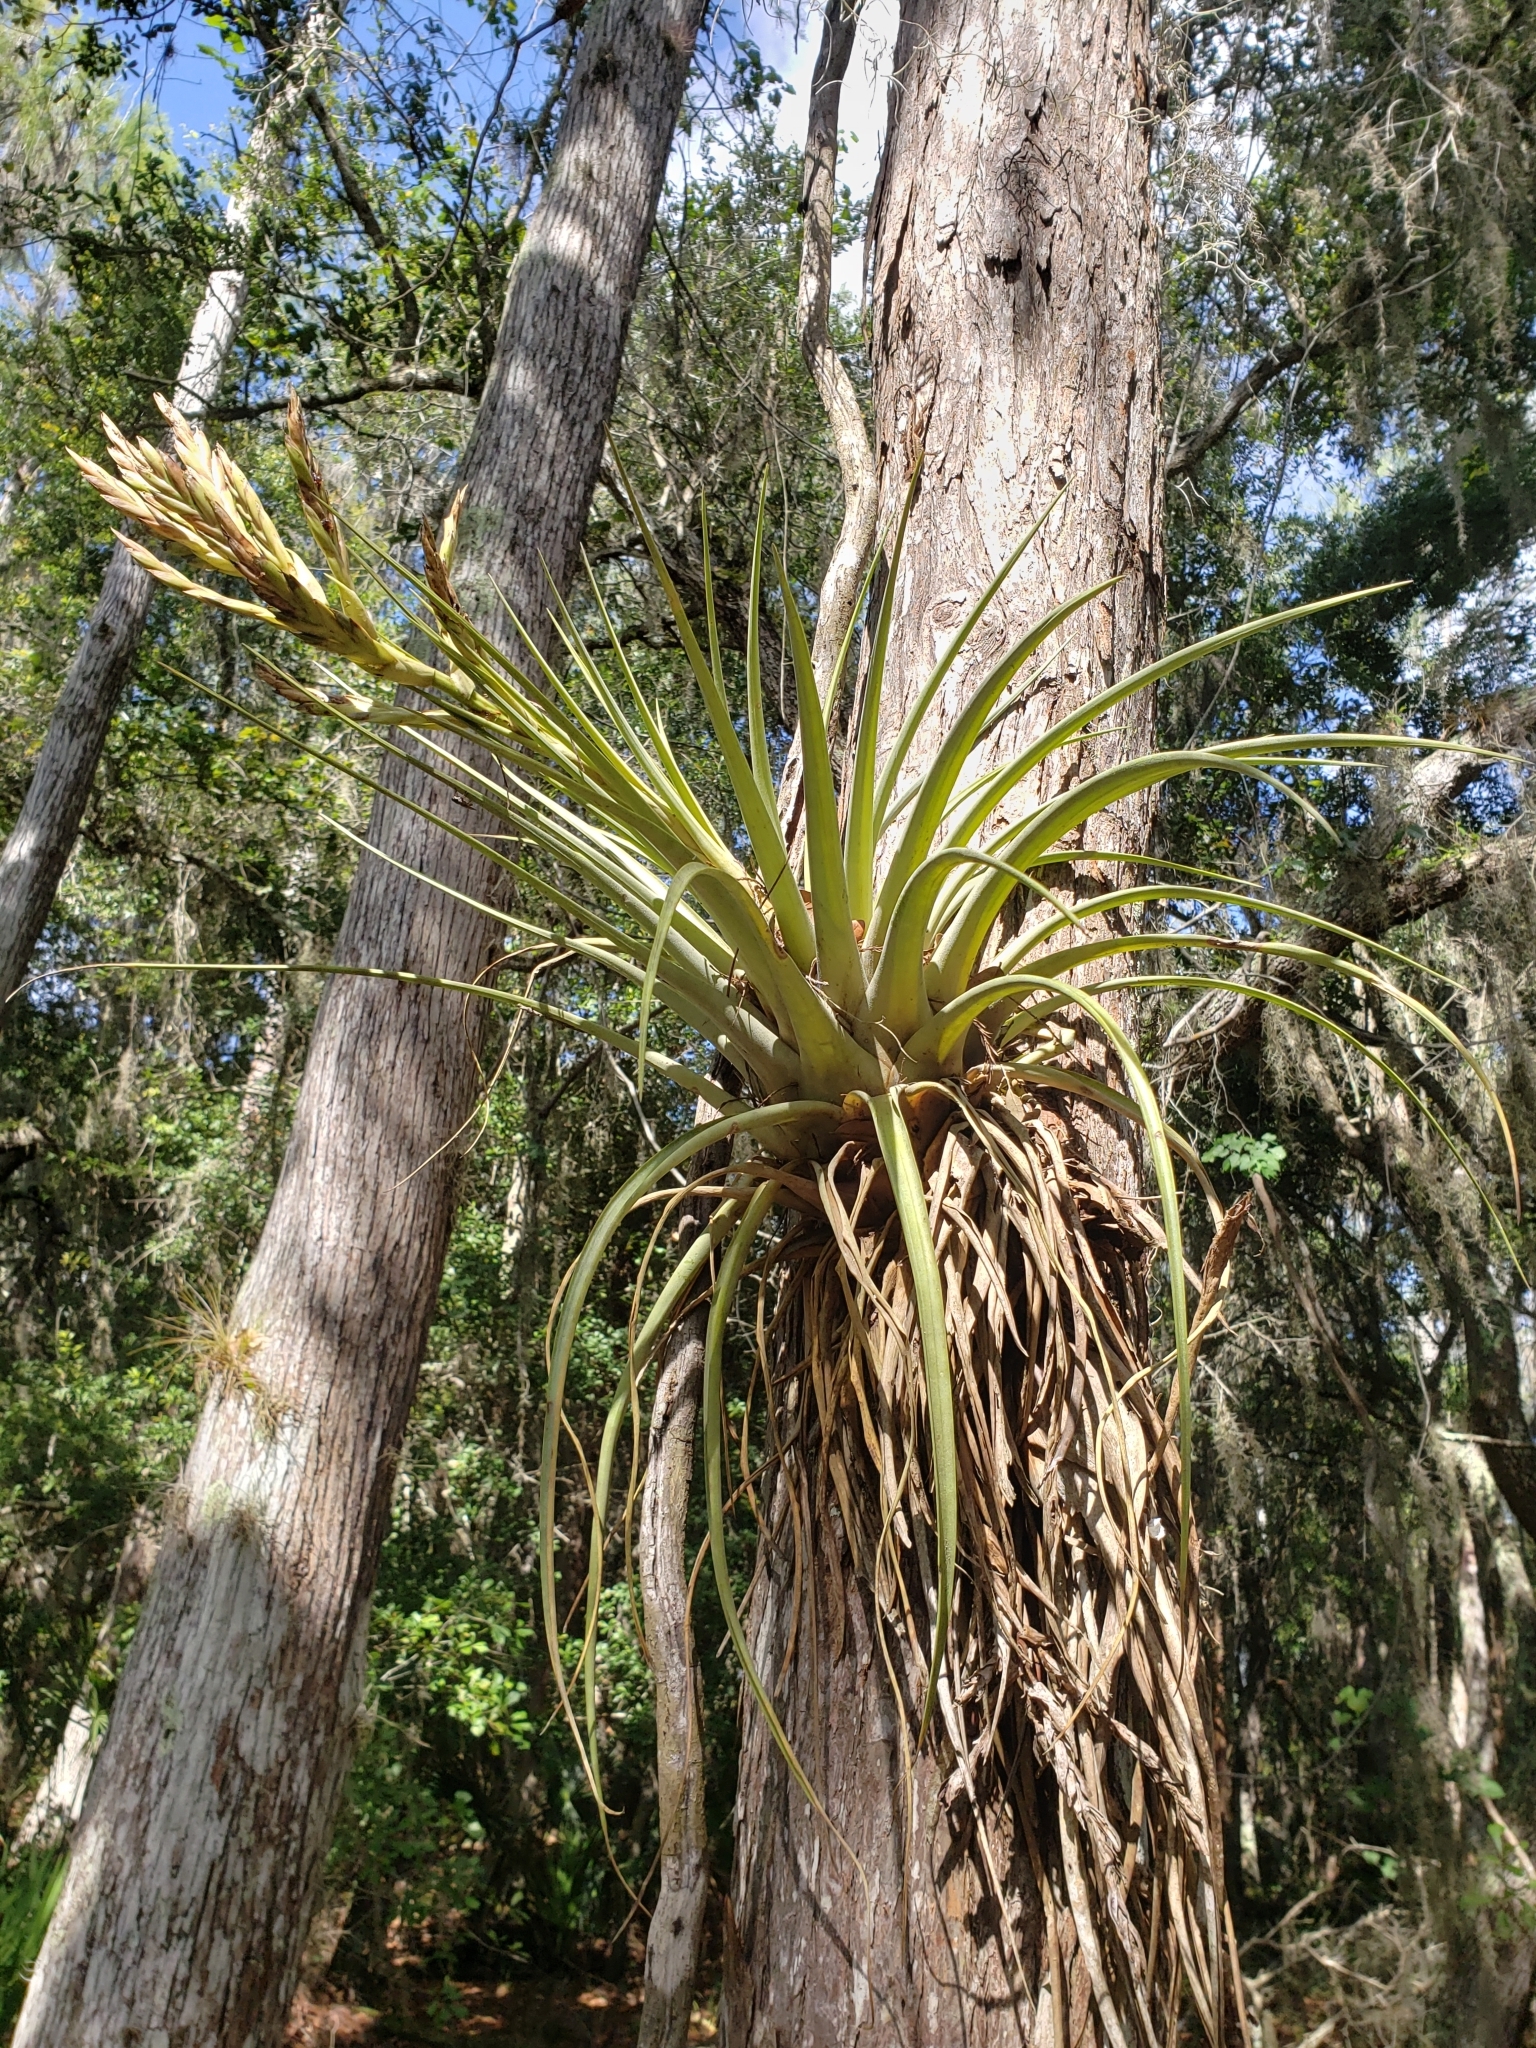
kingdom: Plantae
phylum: Tracheophyta
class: Liliopsida
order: Poales
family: Bromeliaceae
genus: Tillandsia
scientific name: Tillandsia fasciculata
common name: Giant airplant
